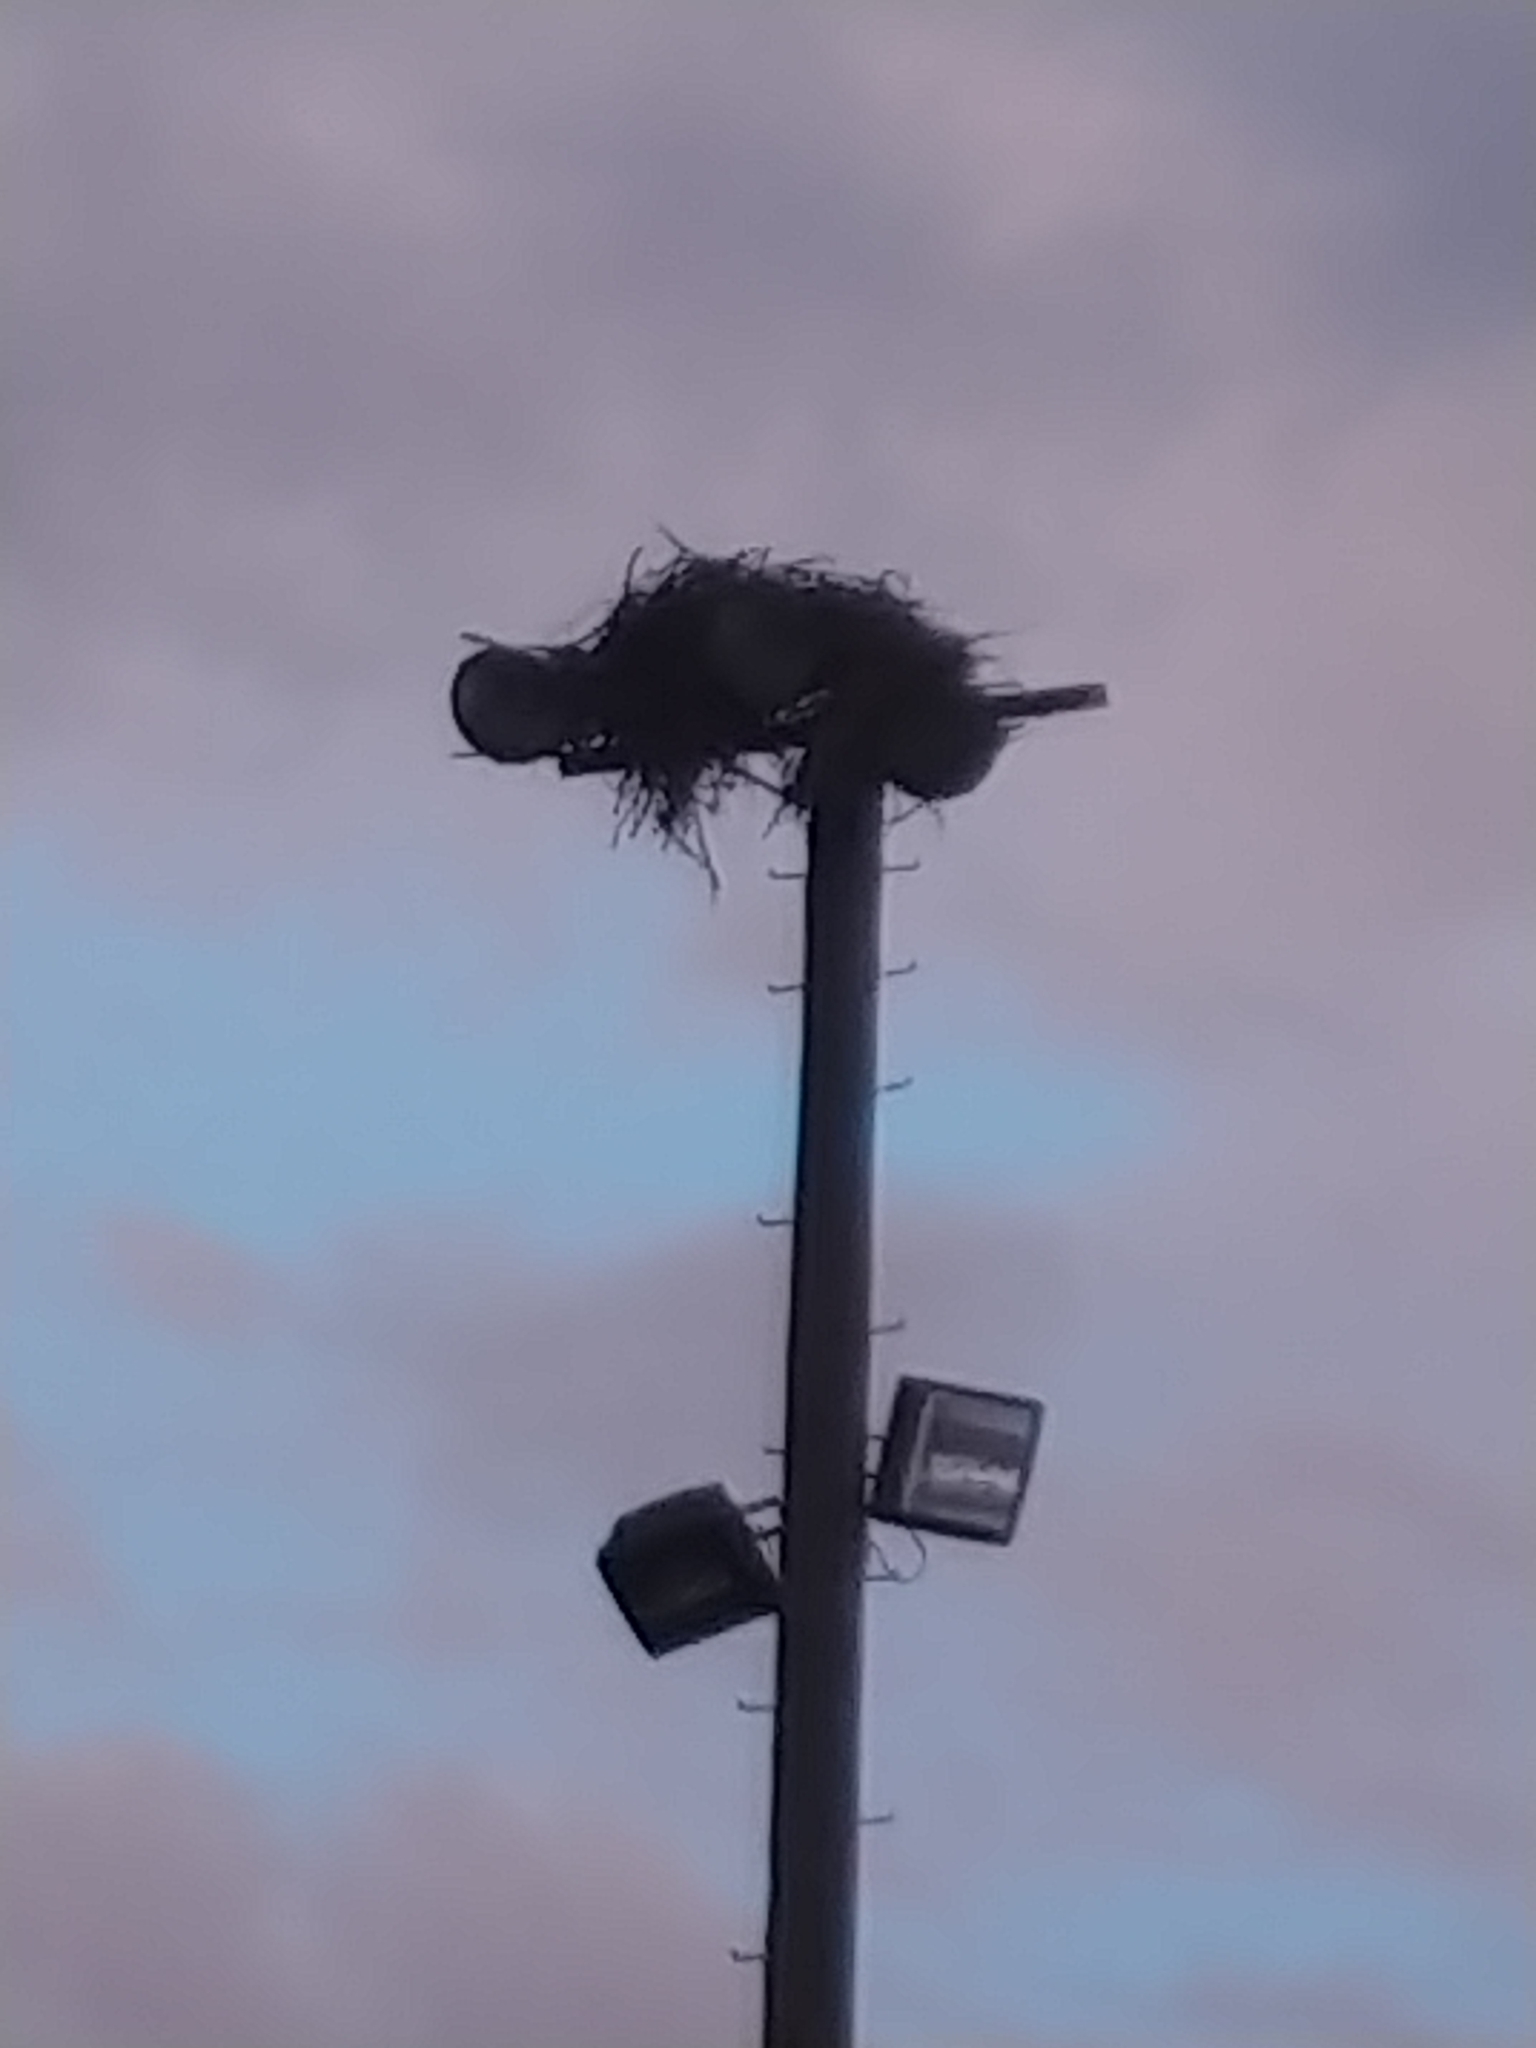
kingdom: Animalia
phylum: Chordata
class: Aves
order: Accipitriformes
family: Pandionidae
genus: Pandion
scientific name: Pandion haliaetus
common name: Osprey
